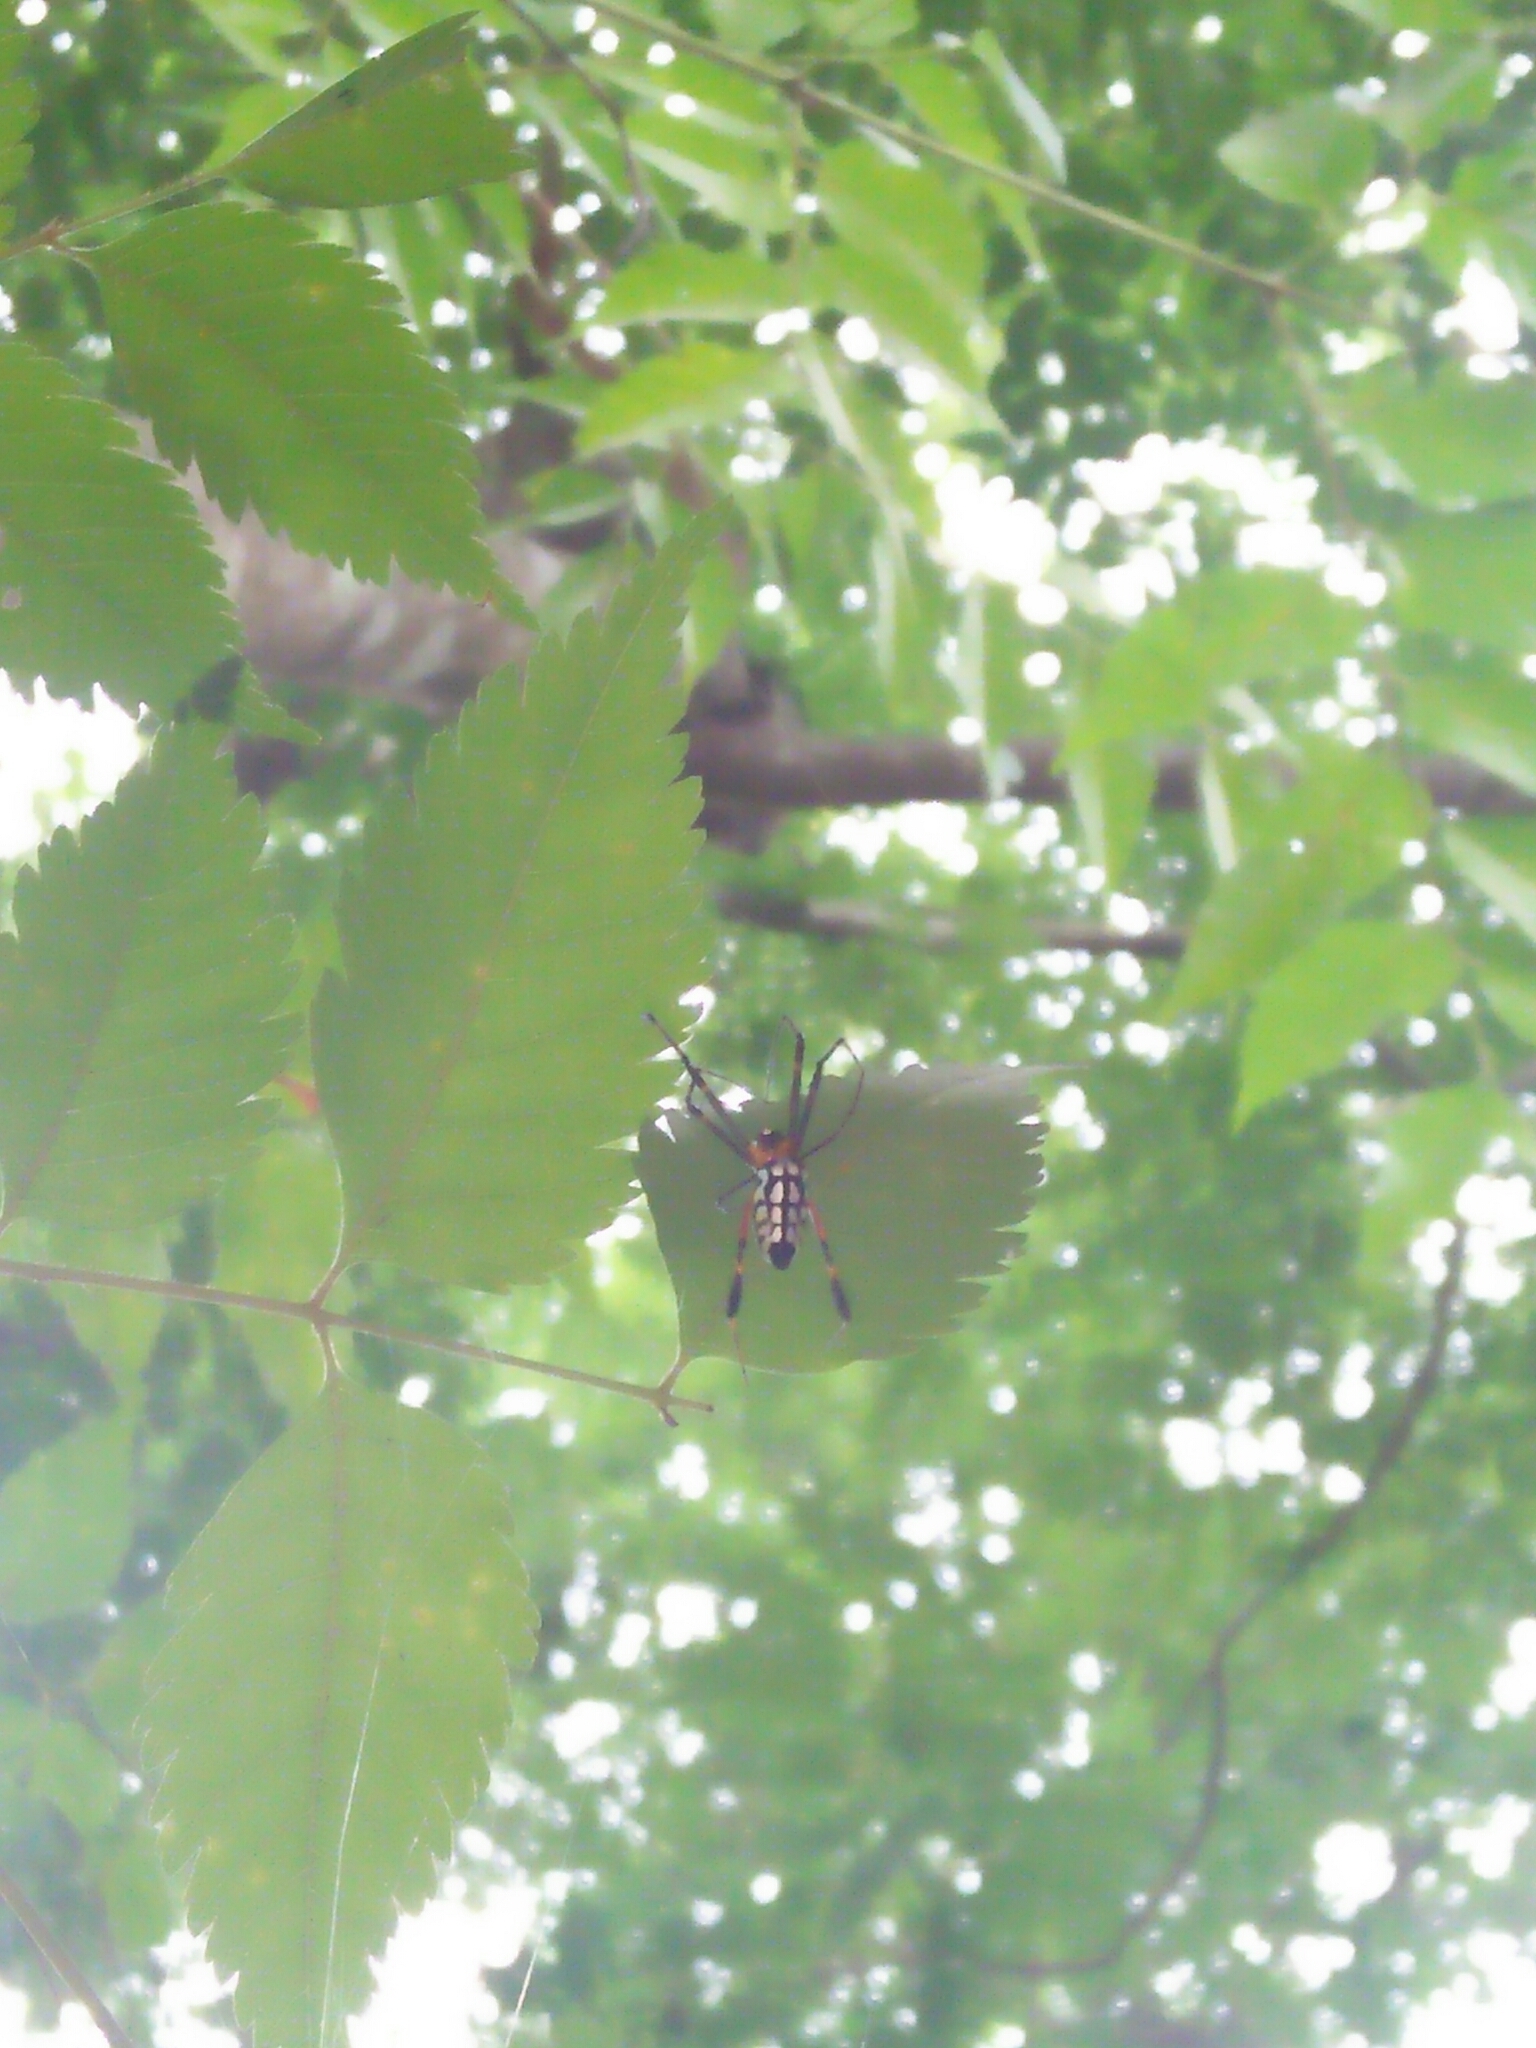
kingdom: Animalia
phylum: Arthropoda
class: Arachnida
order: Araneae
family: Tetragnathidae
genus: Leucauge
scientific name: Leucauge tessellata
